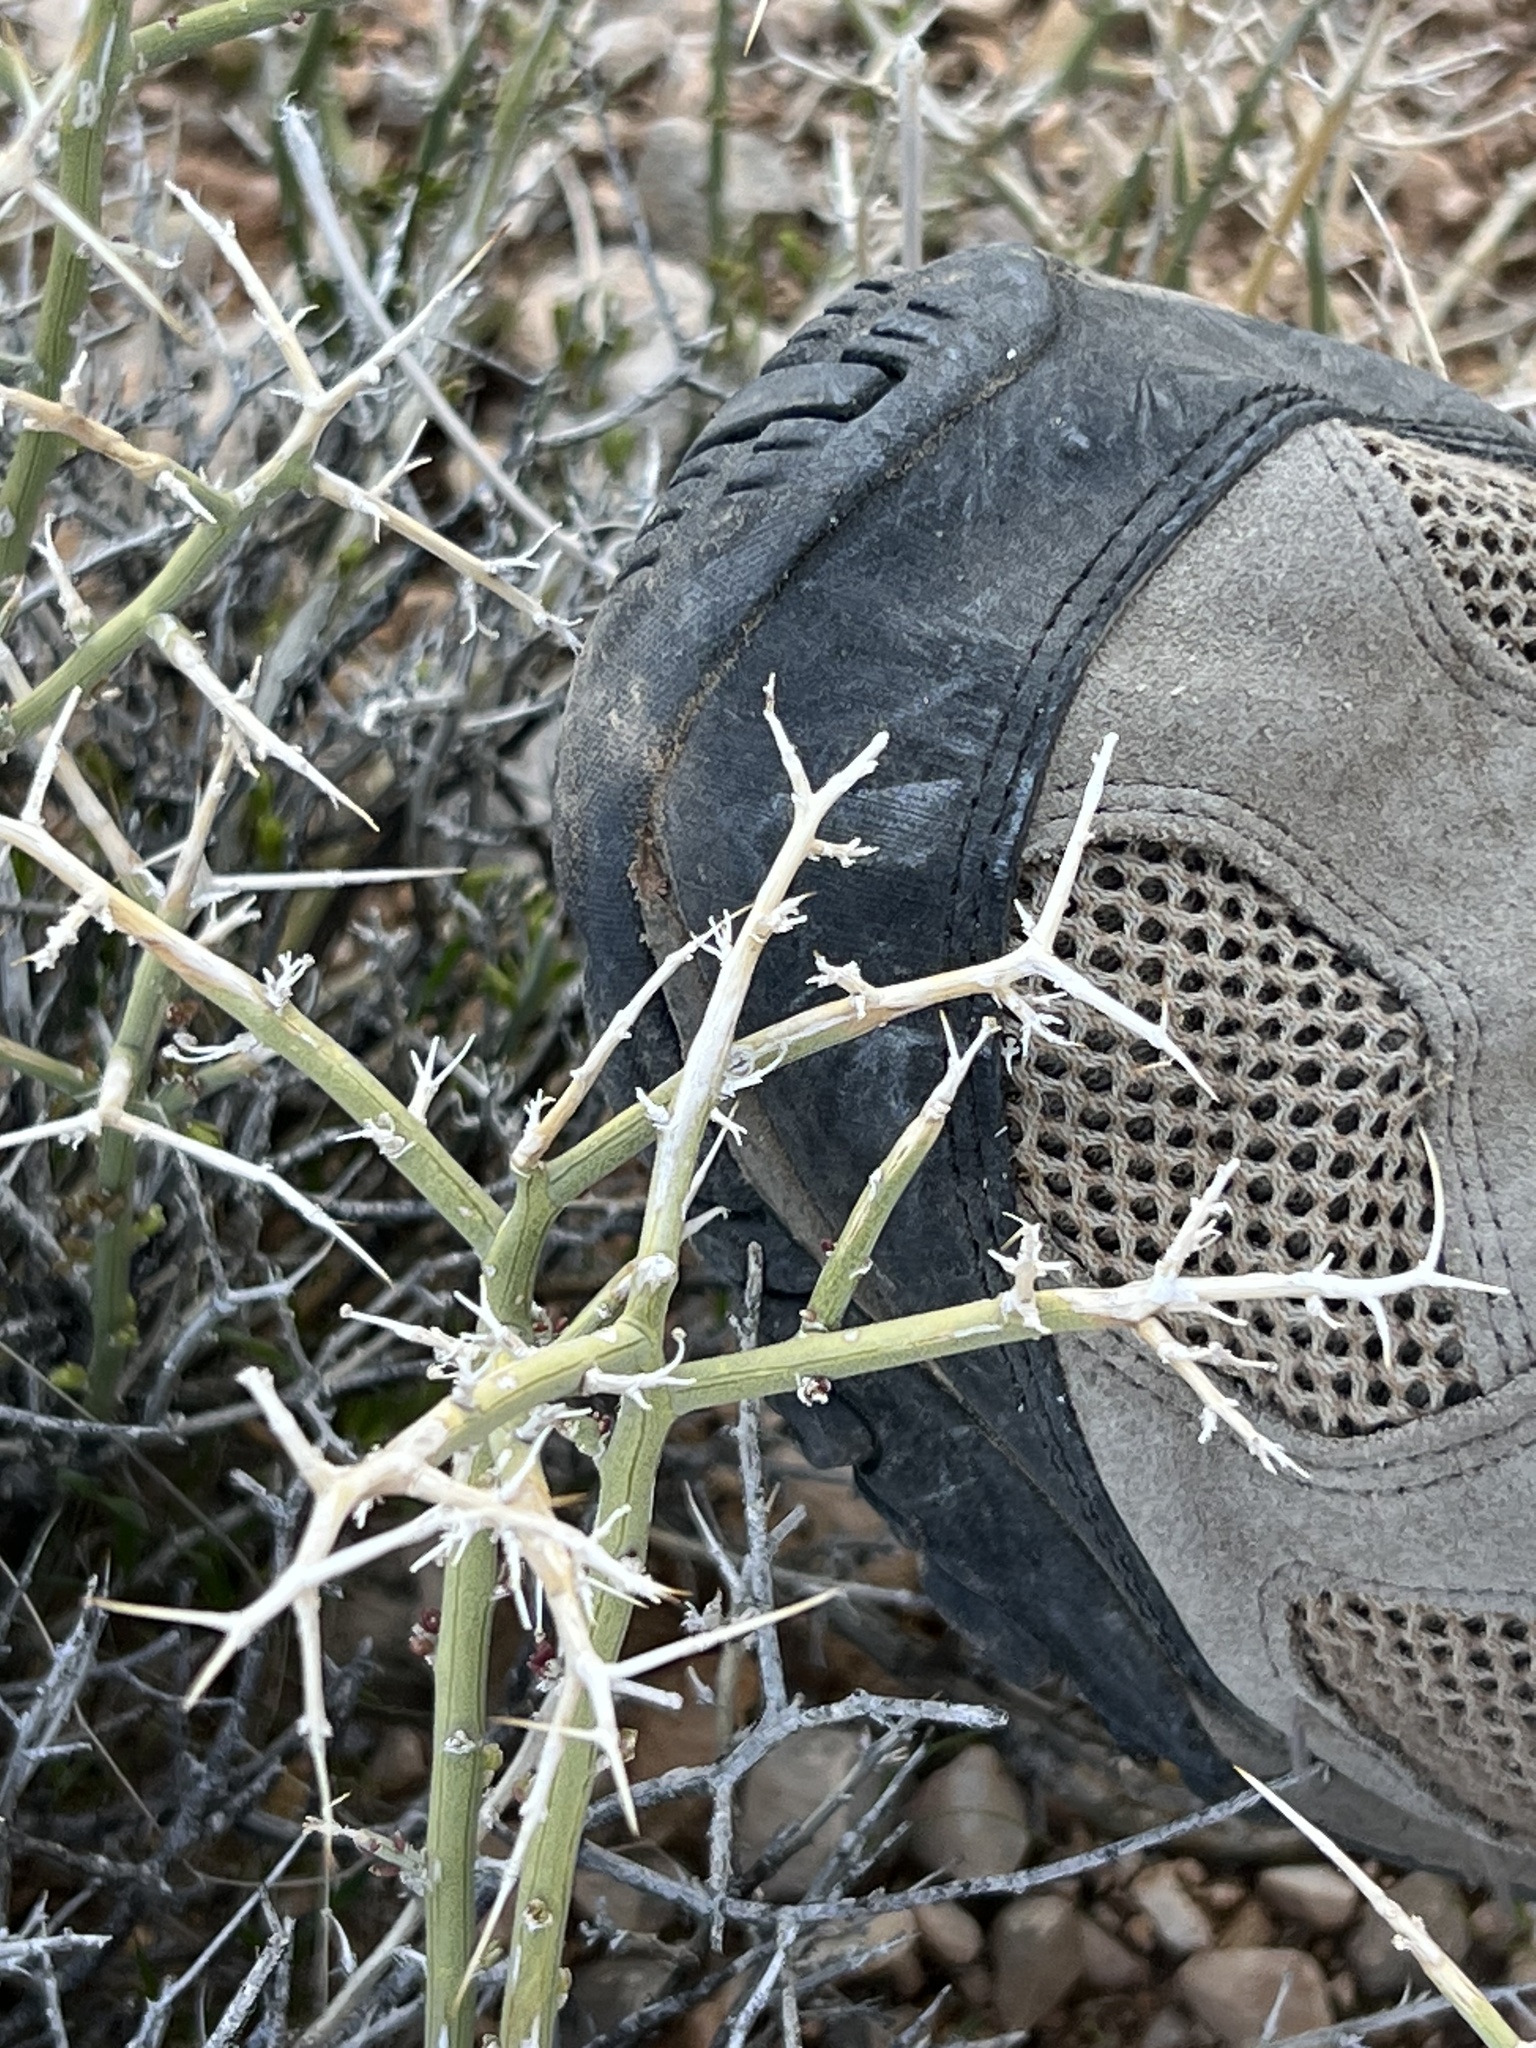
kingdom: Plantae
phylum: Tracheophyta
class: Magnoliopsida
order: Lamiales
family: Oleaceae
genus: Menodora
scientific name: Menodora spinescens
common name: Spiny menodora
